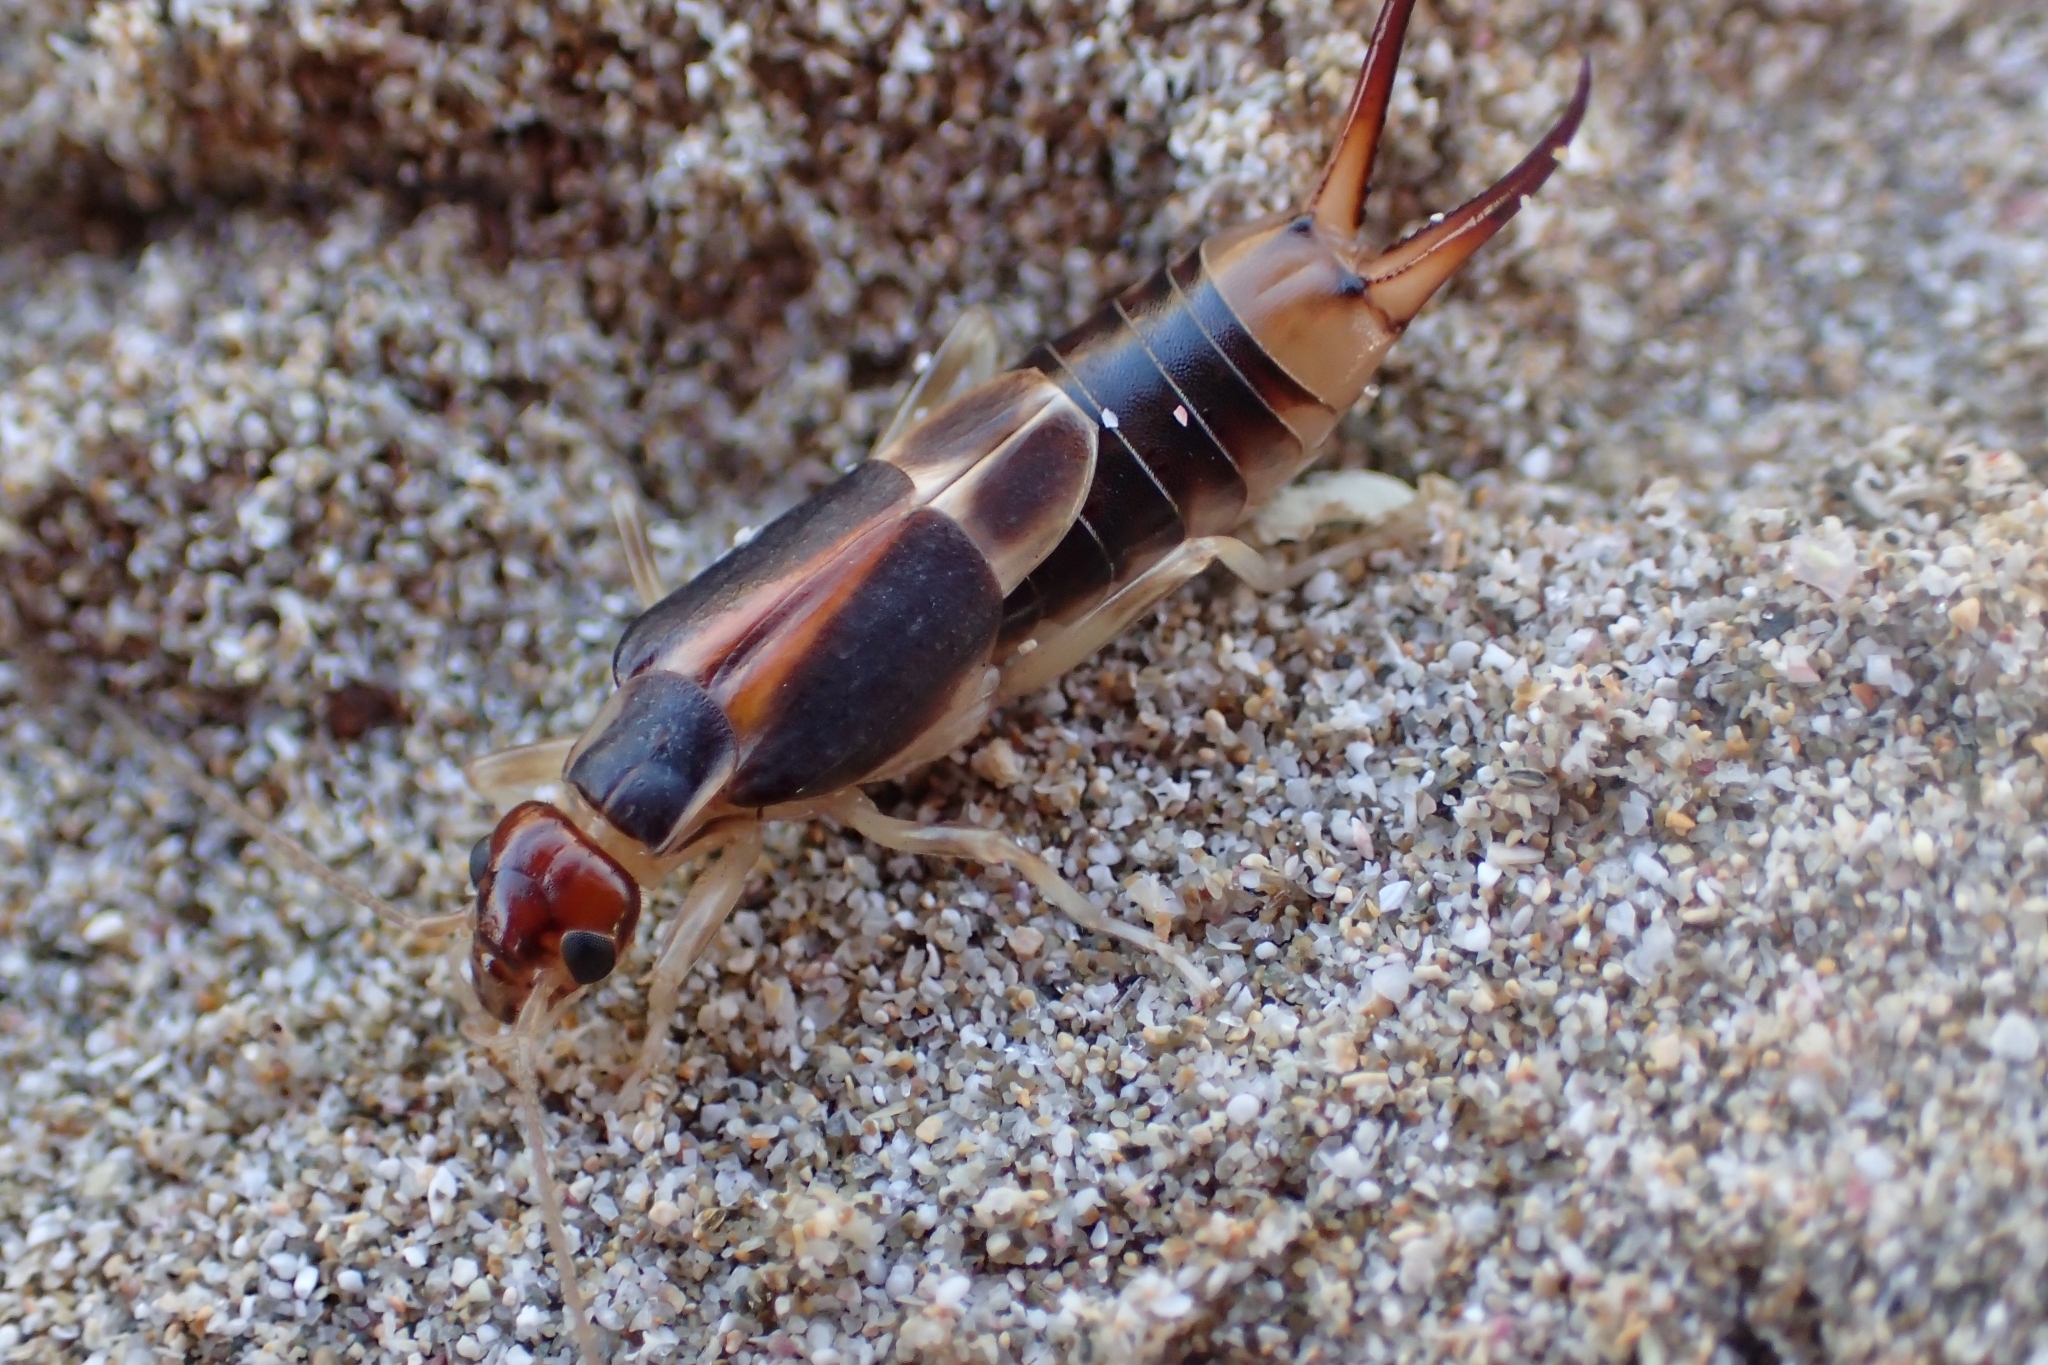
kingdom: Animalia
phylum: Arthropoda
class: Insecta
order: Dermaptera
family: Labiduridae
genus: Labidura
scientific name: Labidura riparia
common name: Striped earwig
